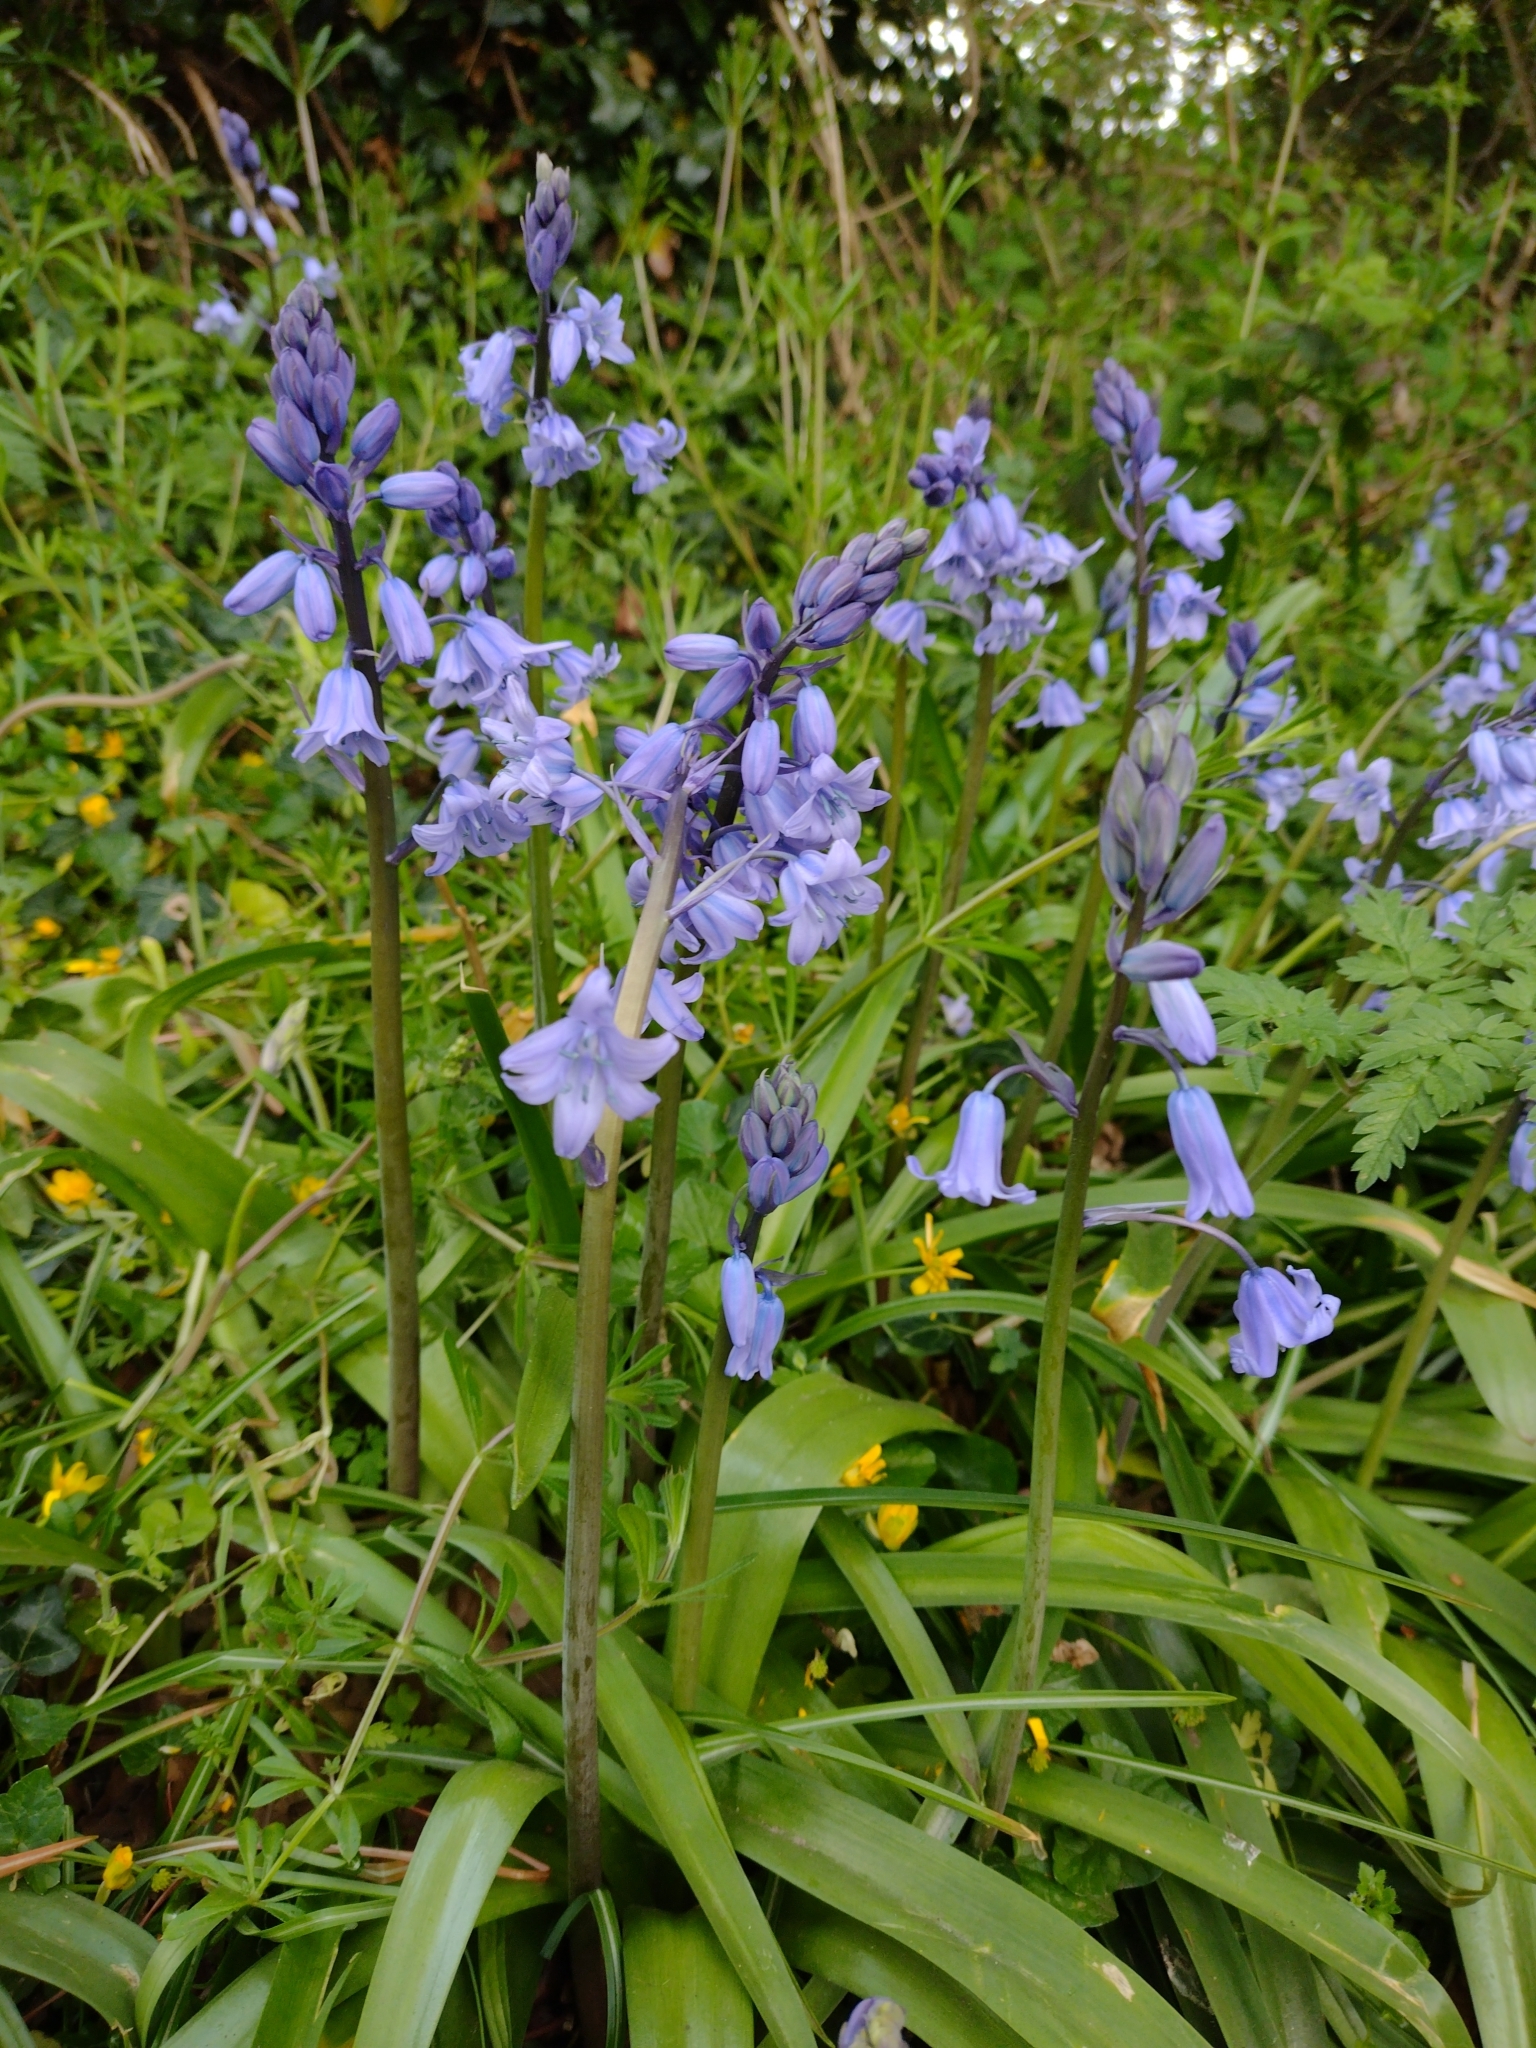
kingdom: Plantae
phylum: Tracheophyta
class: Liliopsida
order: Asparagales
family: Asparagaceae
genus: Hyacinthoides
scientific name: Hyacinthoides hispanica
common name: Spanish bluebell
